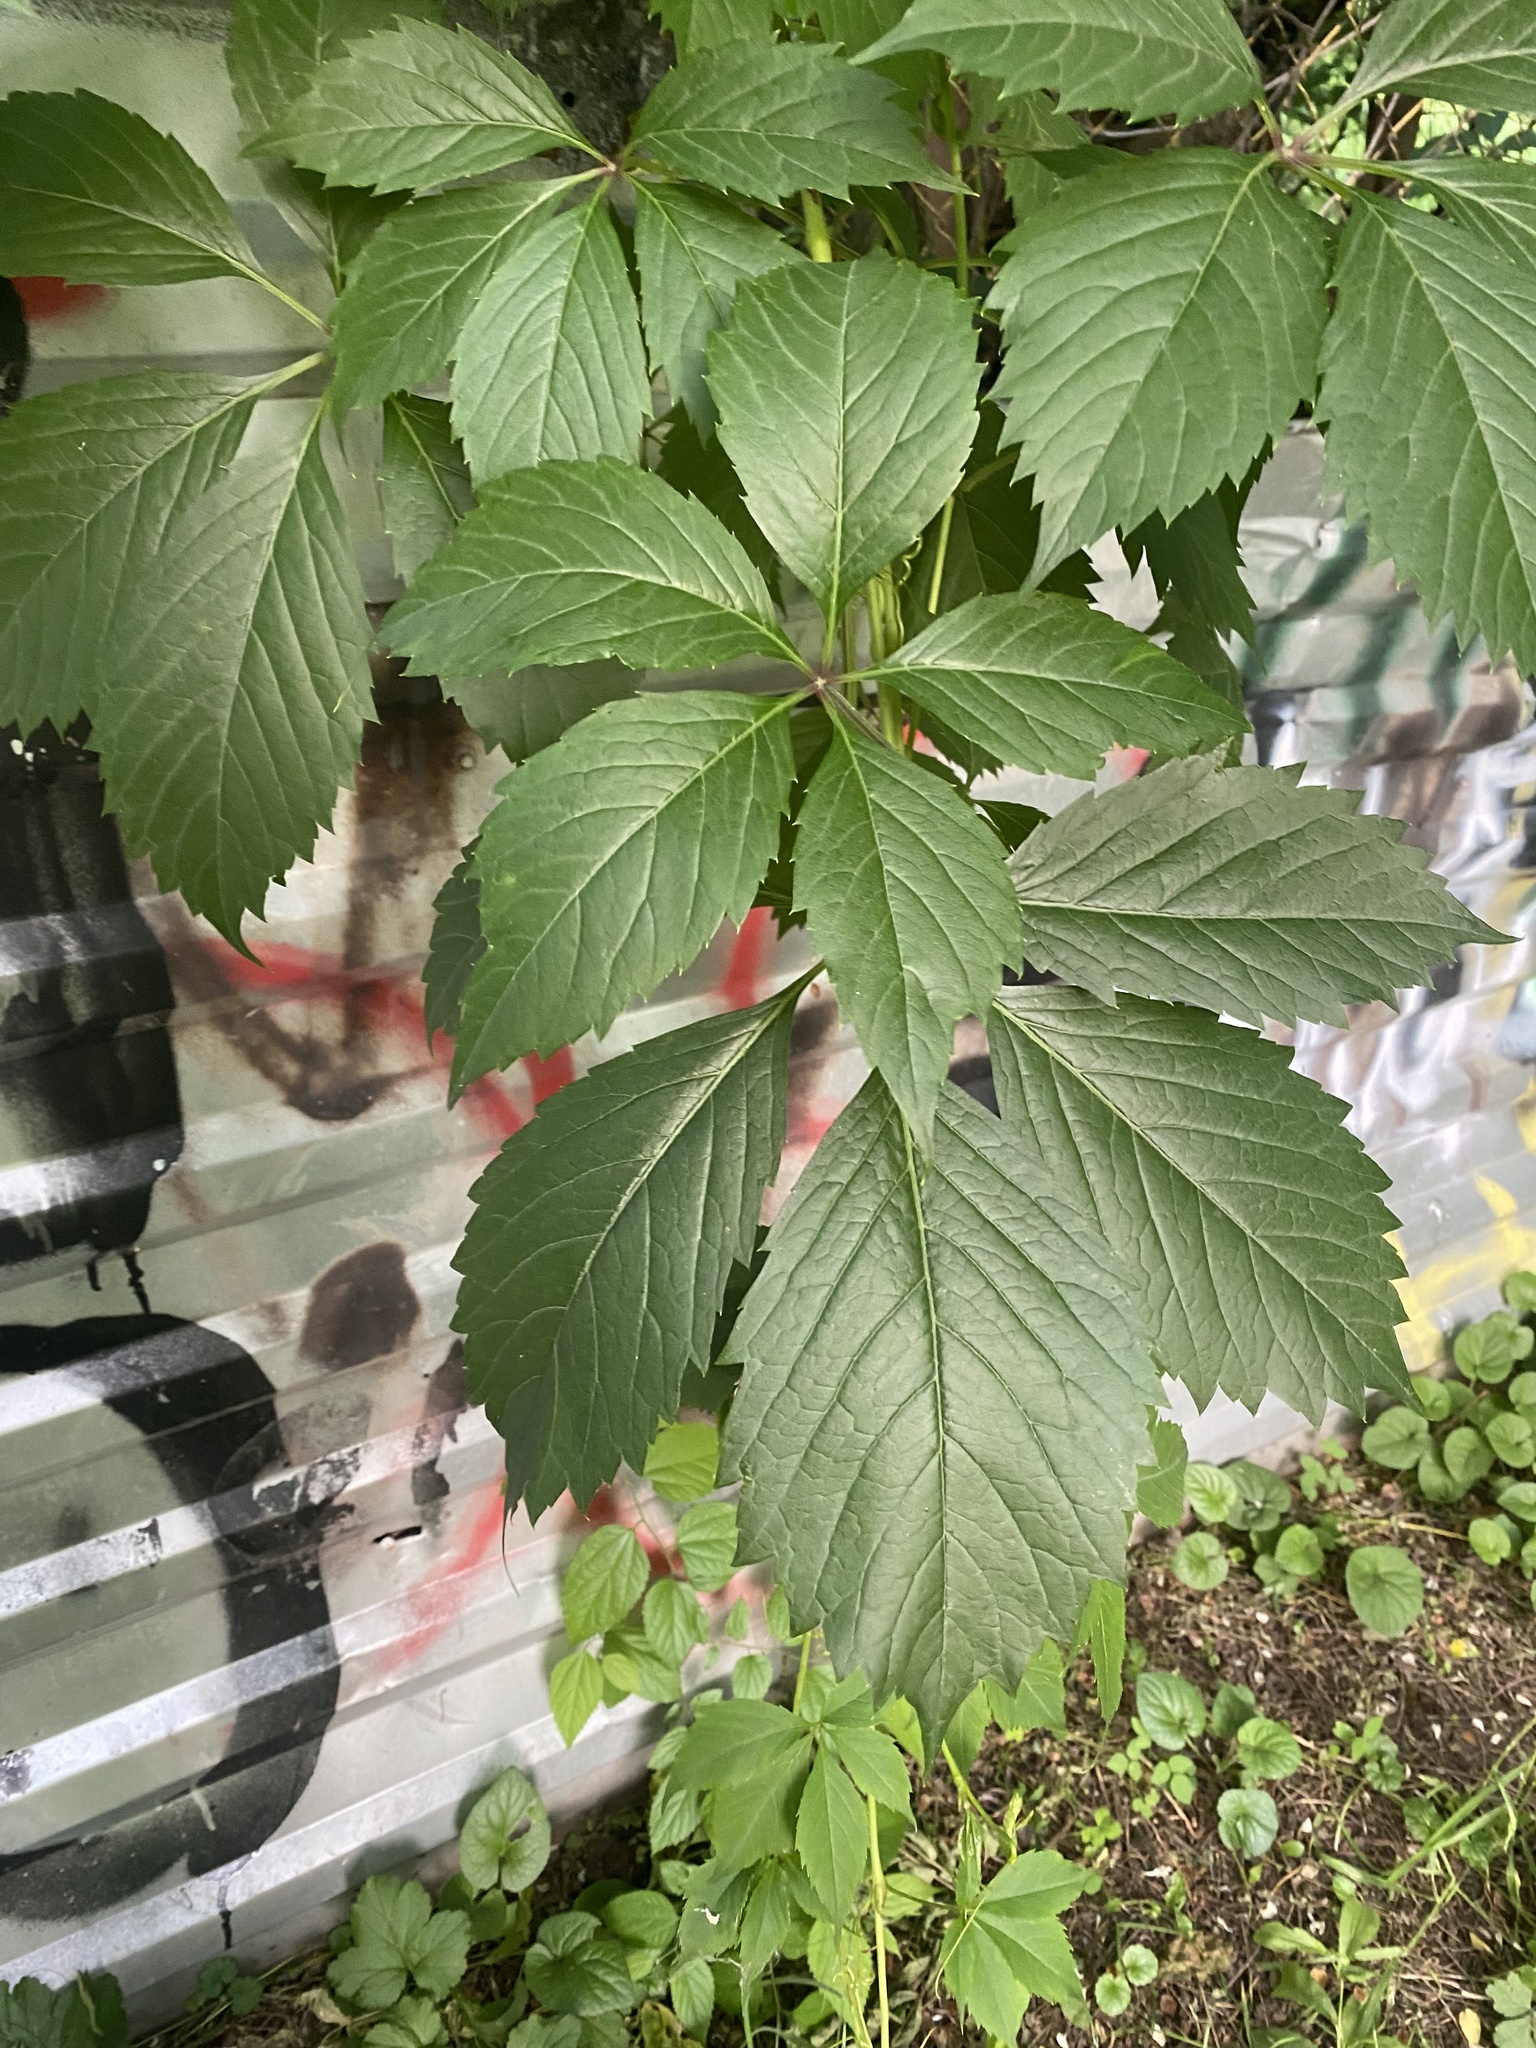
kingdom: Plantae
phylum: Tracheophyta
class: Magnoliopsida
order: Vitales
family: Vitaceae
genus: Parthenocissus
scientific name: Parthenocissus inserta
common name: False virginia-creeper
